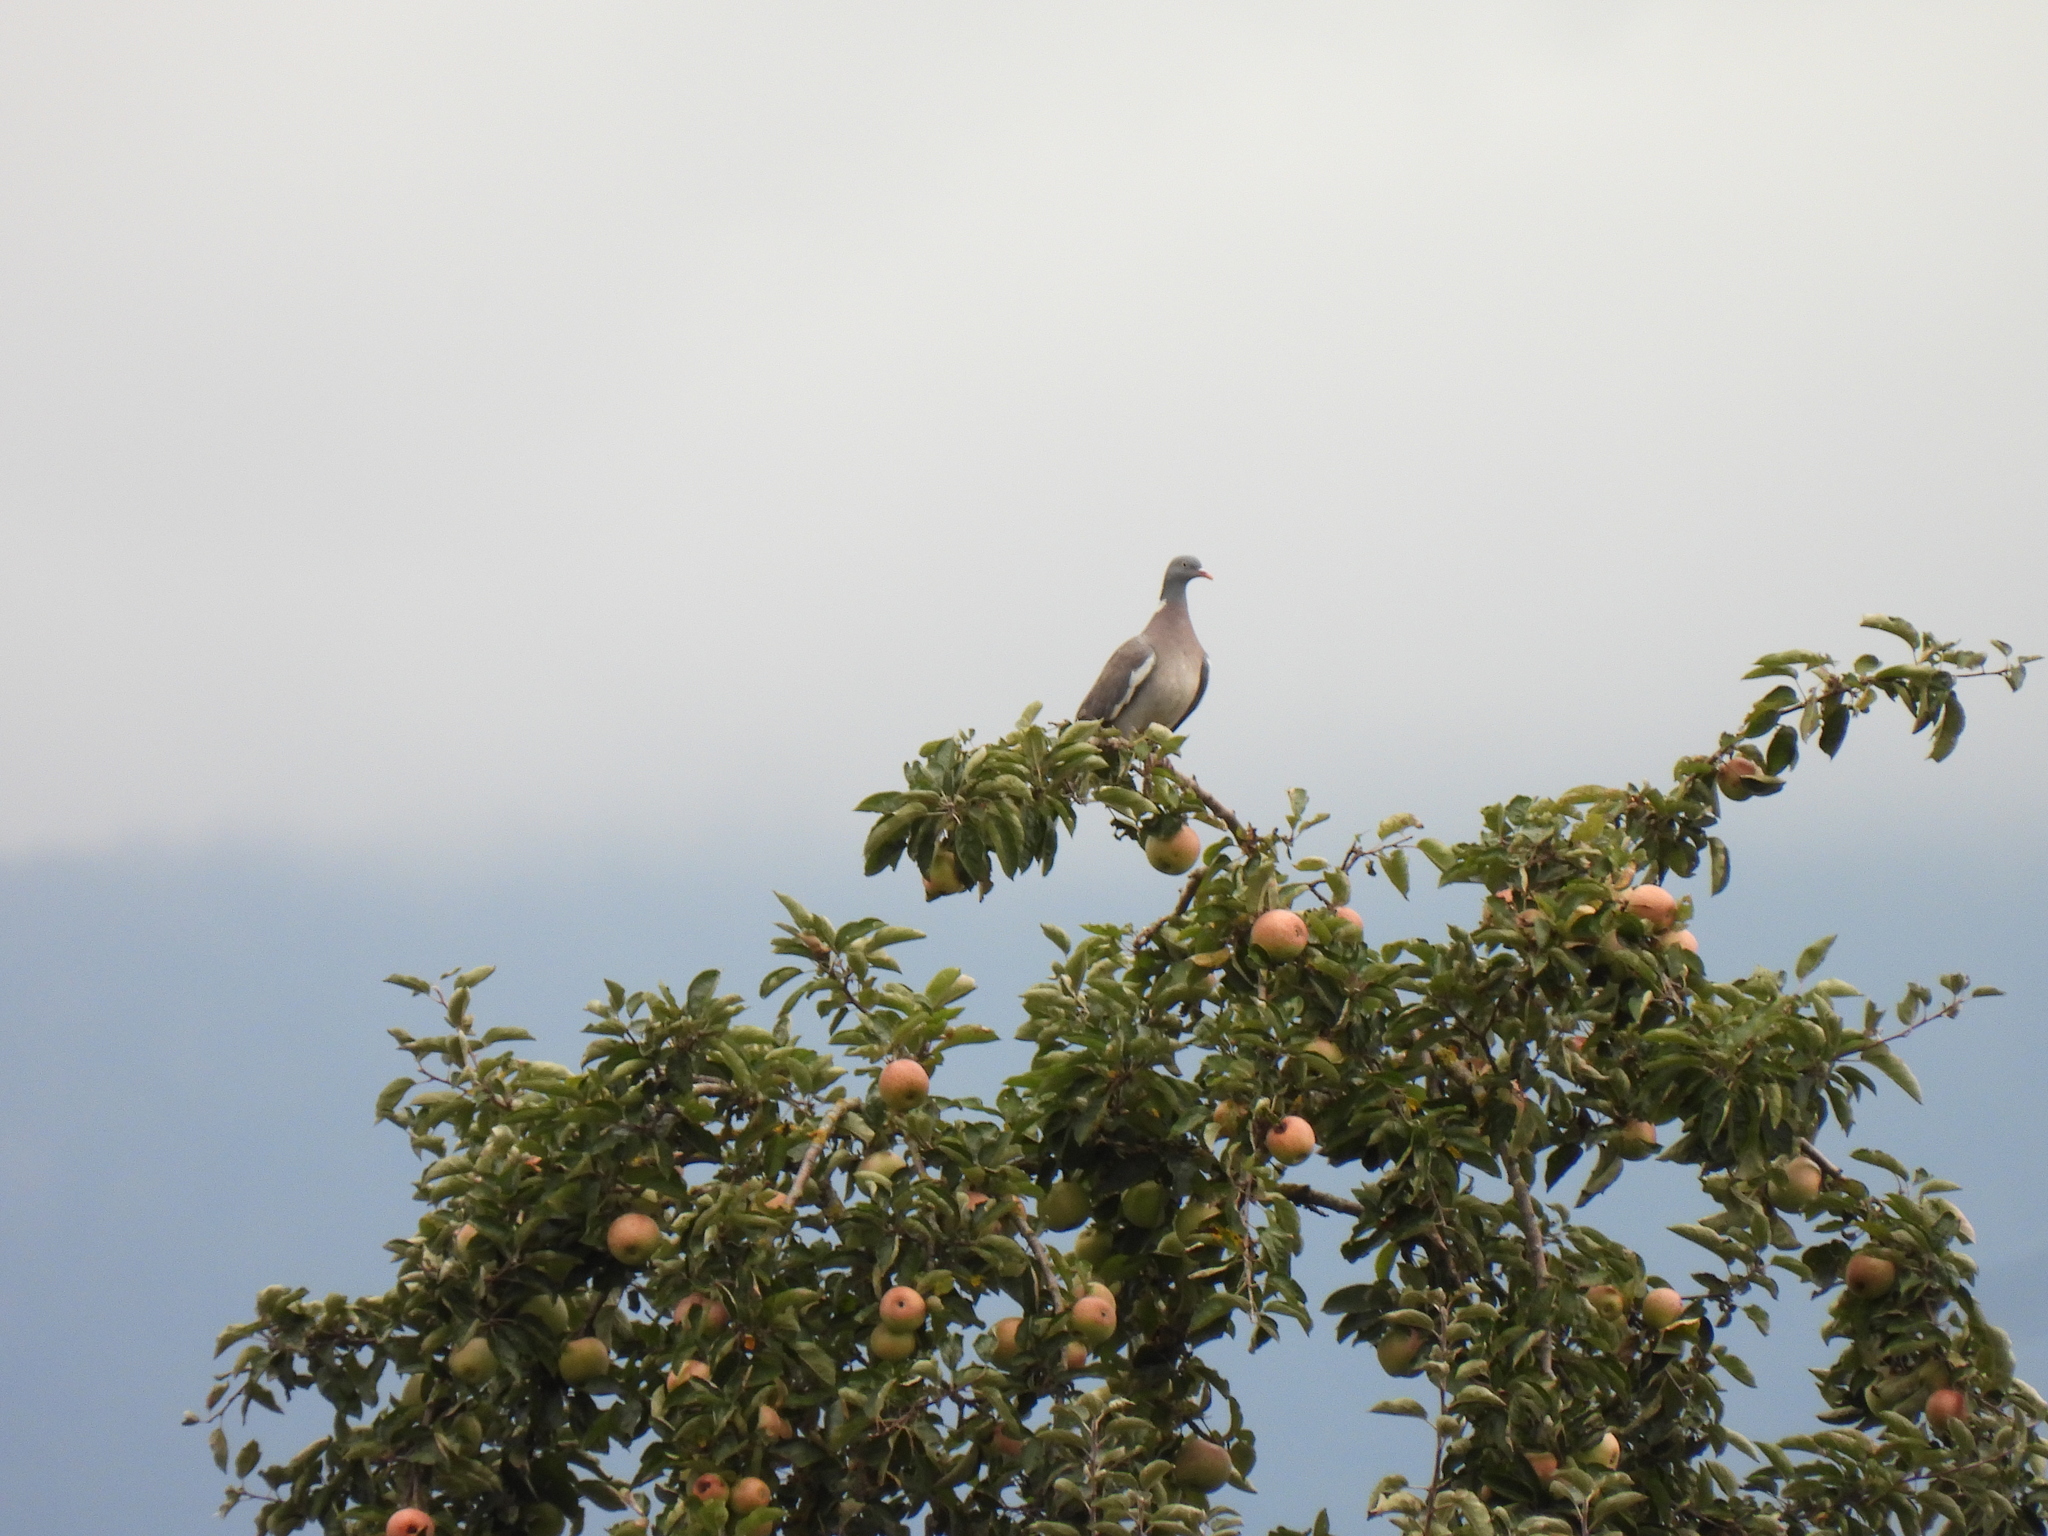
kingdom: Animalia
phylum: Chordata
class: Aves
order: Columbiformes
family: Columbidae
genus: Columba
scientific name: Columba palumbus
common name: Common wood pigeon
